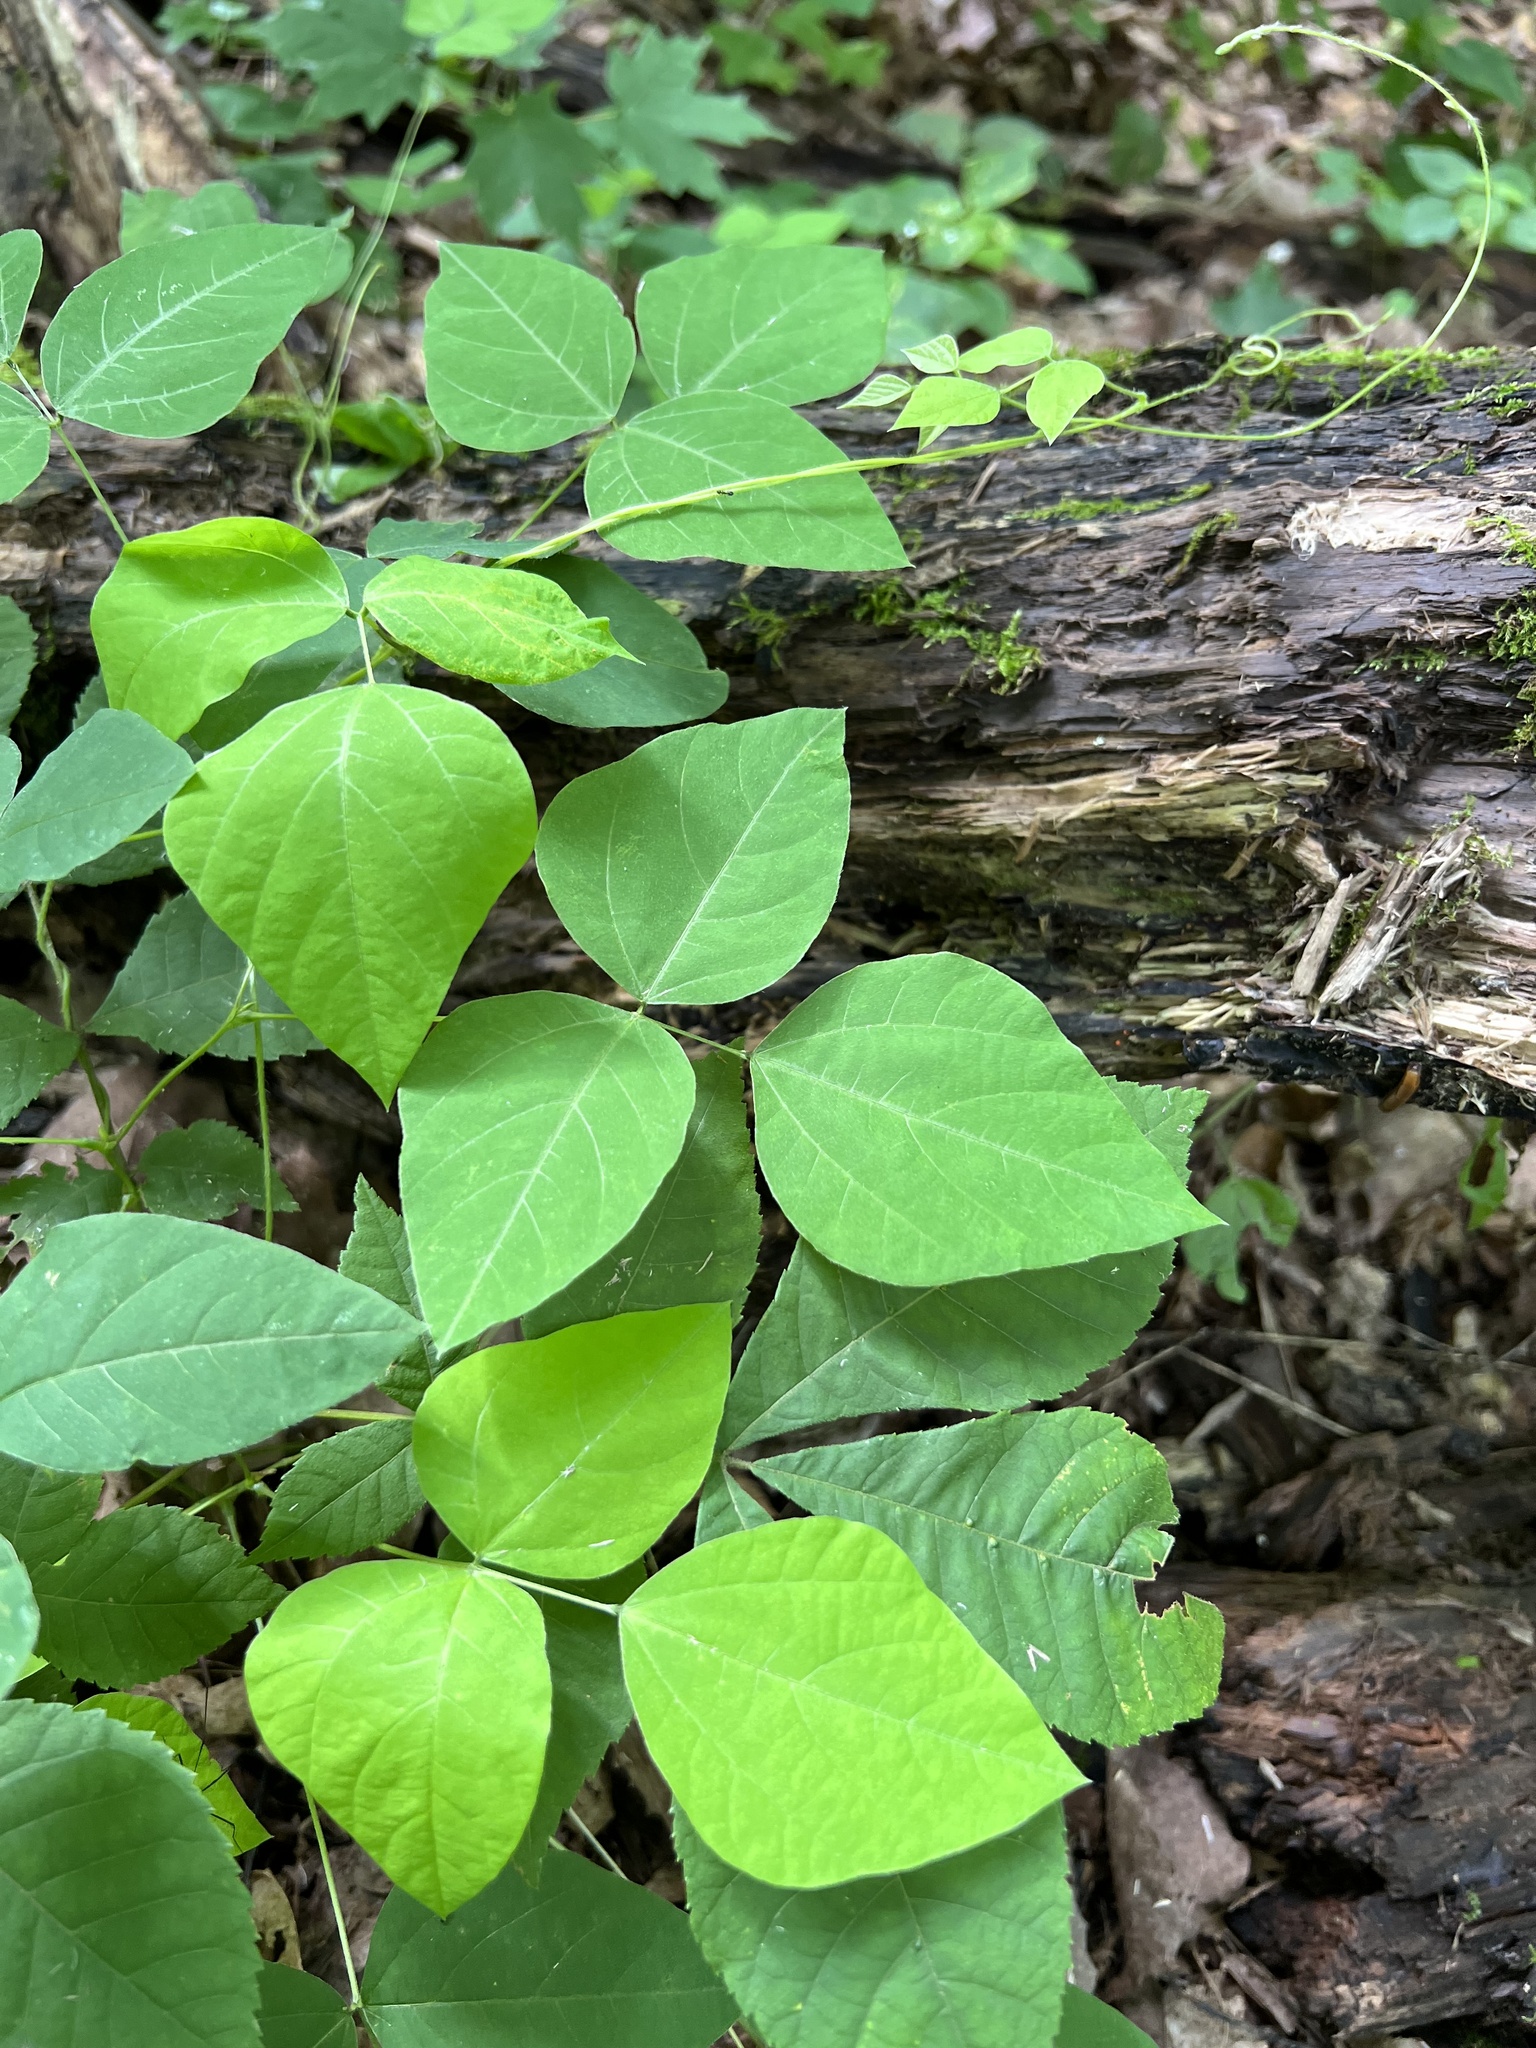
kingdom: Plantae
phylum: Tracheophyta
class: Magnoliopsida
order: Fabales
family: Fabaceae
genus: Amphicarpaea
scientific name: Amphicarpaea bracteata
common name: American hog peanut
